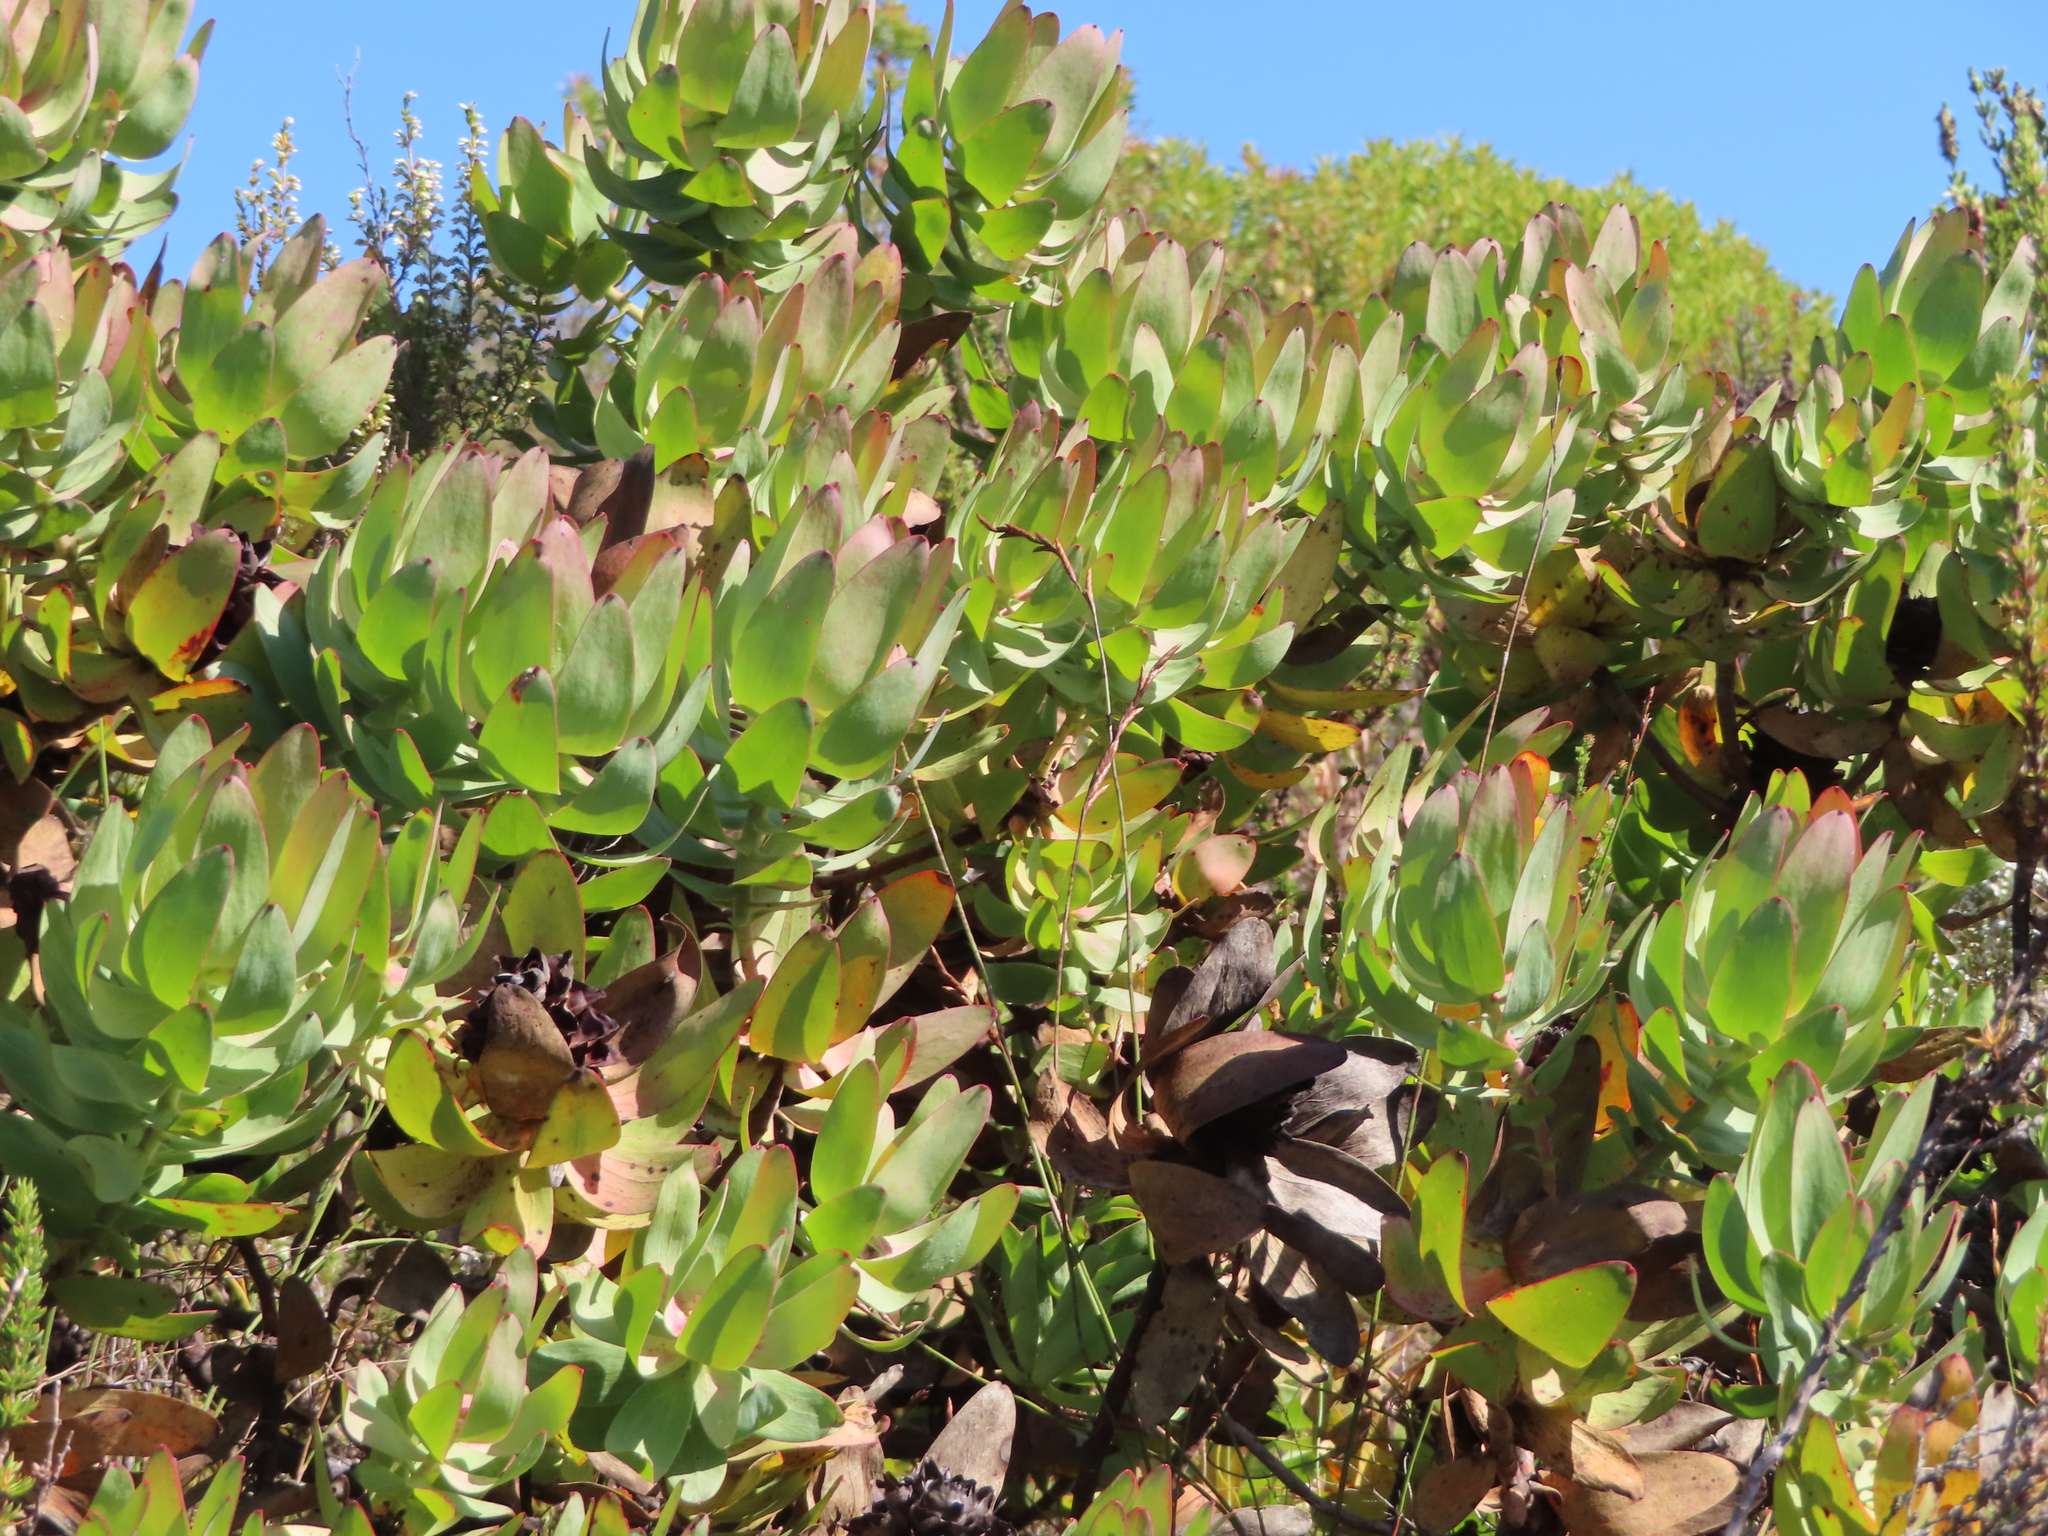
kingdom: Plantae
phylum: Tracheophyta
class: Magnoliopsida
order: Proteales
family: Proteaceae
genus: Leucadendron
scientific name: Leucadendron tinctum
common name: Spicy conebush
